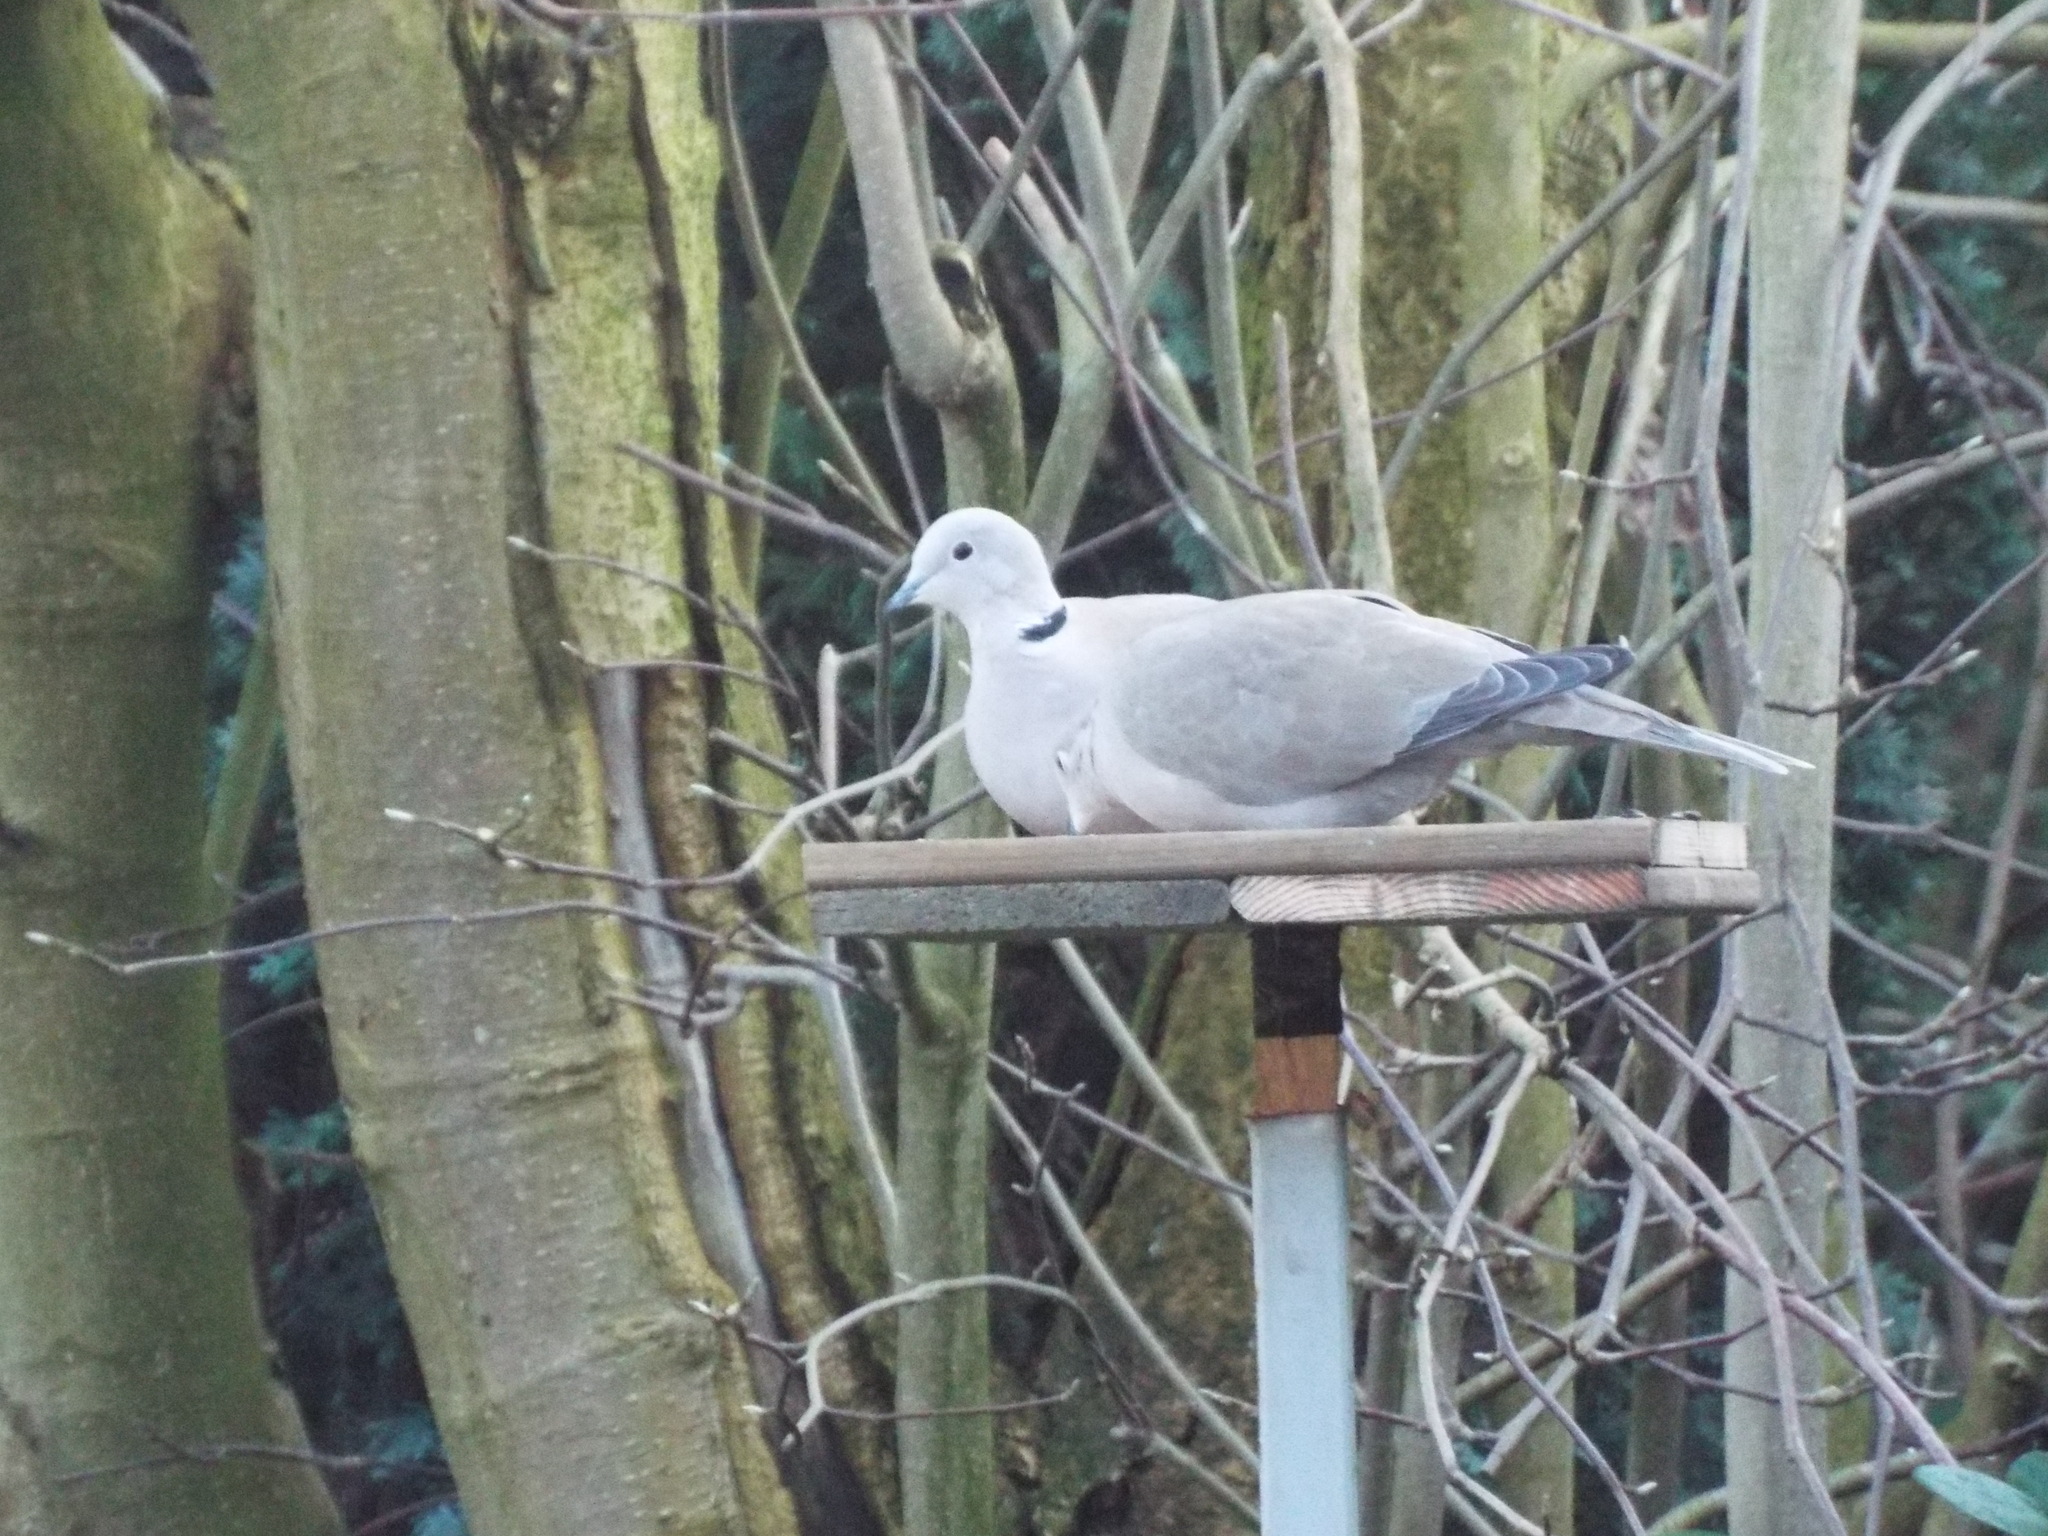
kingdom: Animalia
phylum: Chordata
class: Aves
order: Columbiformes
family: Columbidae
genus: Streptopelia
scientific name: Streptopelia decaocto
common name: Eurasian collared dove
